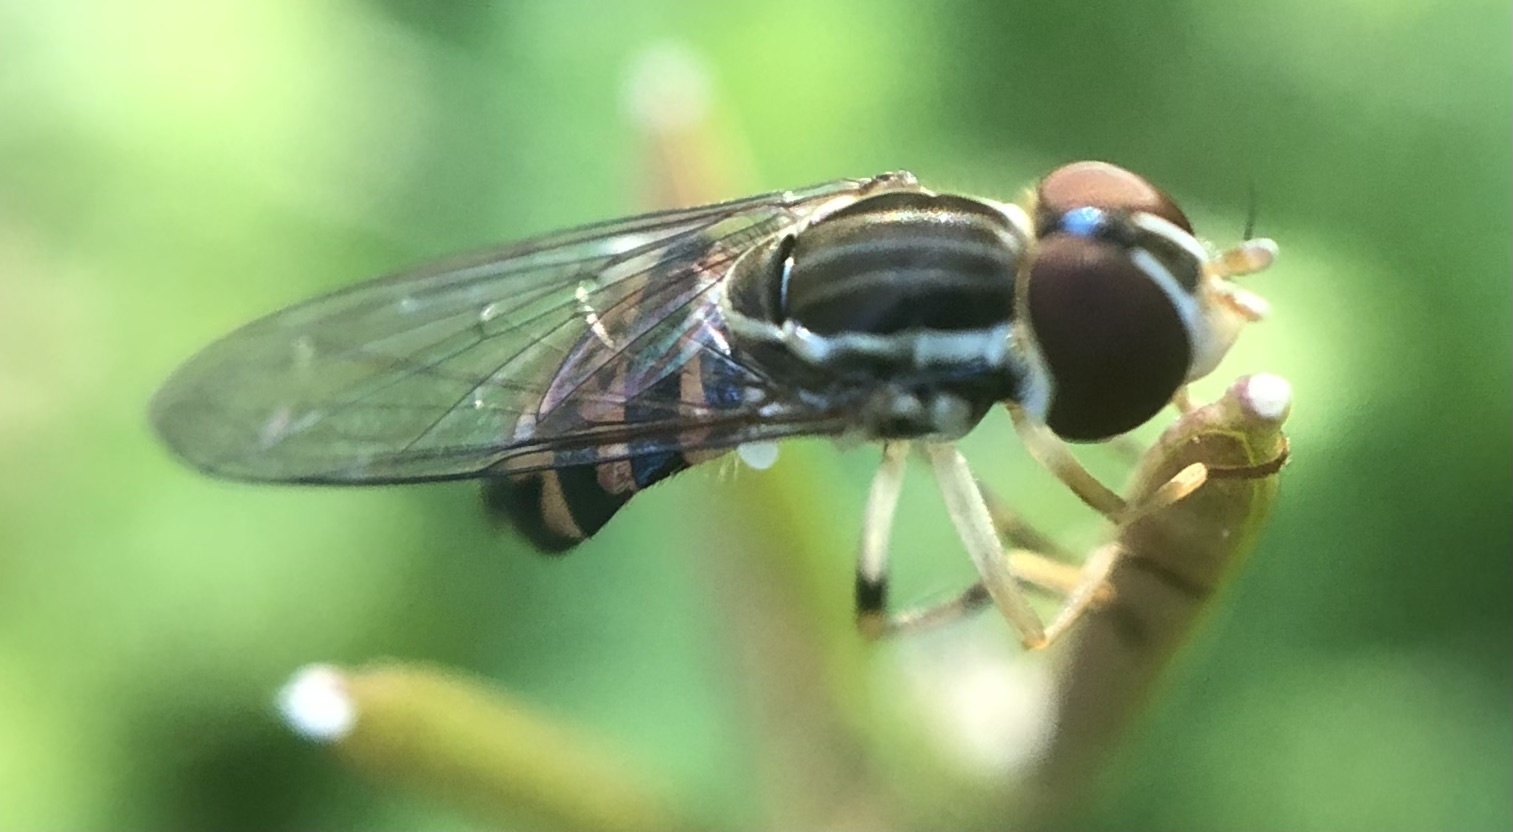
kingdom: Animalia
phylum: Arthropoda
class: Insecta
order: Diptera
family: Syrphidae
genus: Toxomerus
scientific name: Toxomerus geminatus
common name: Eastern calligrapher
